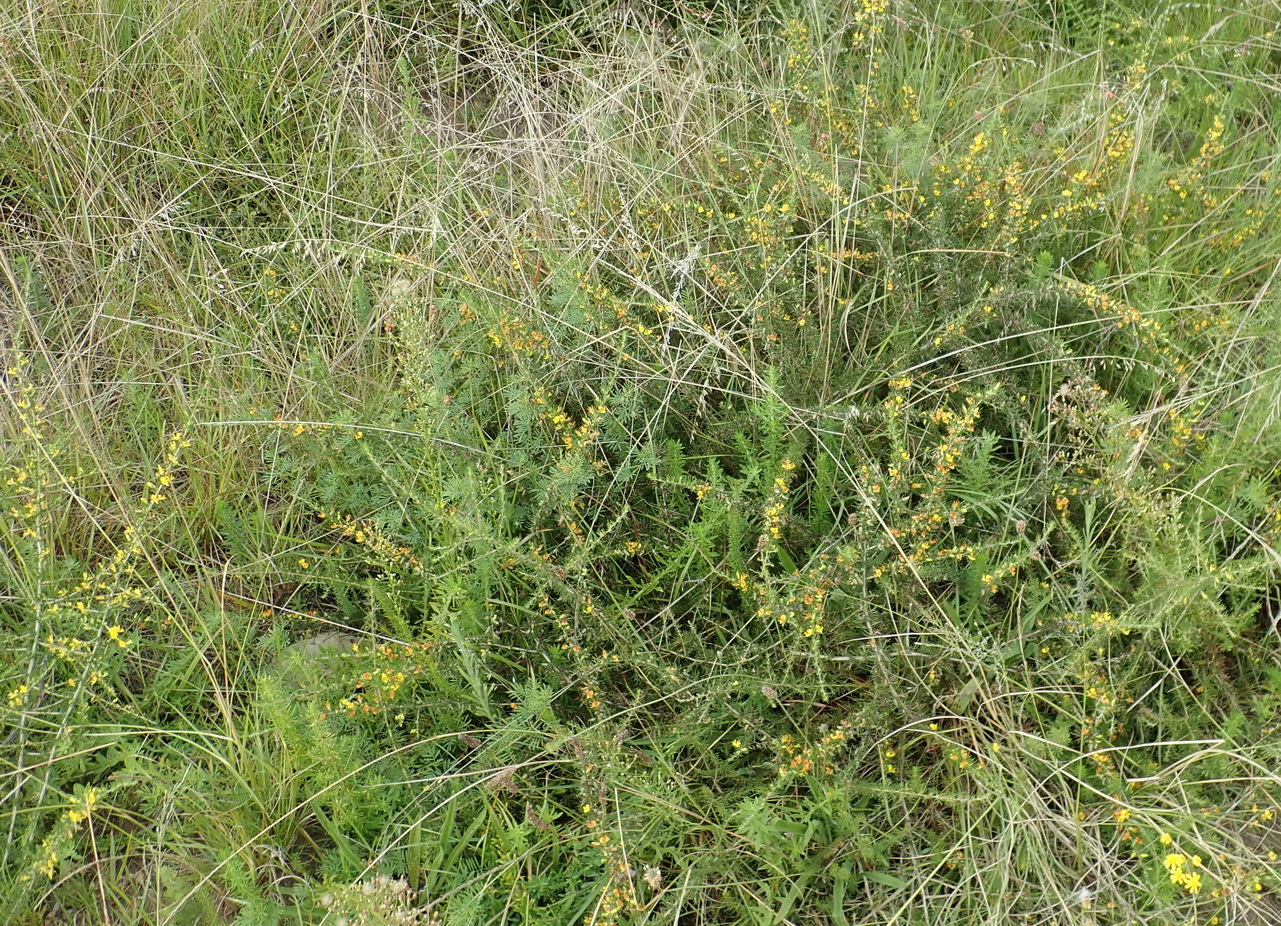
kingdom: Plantae
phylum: Tracheophyta
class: Magnoliopsida
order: Fabales
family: Fabaceae
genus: Aspalathus
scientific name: Aspalathus spinosa
